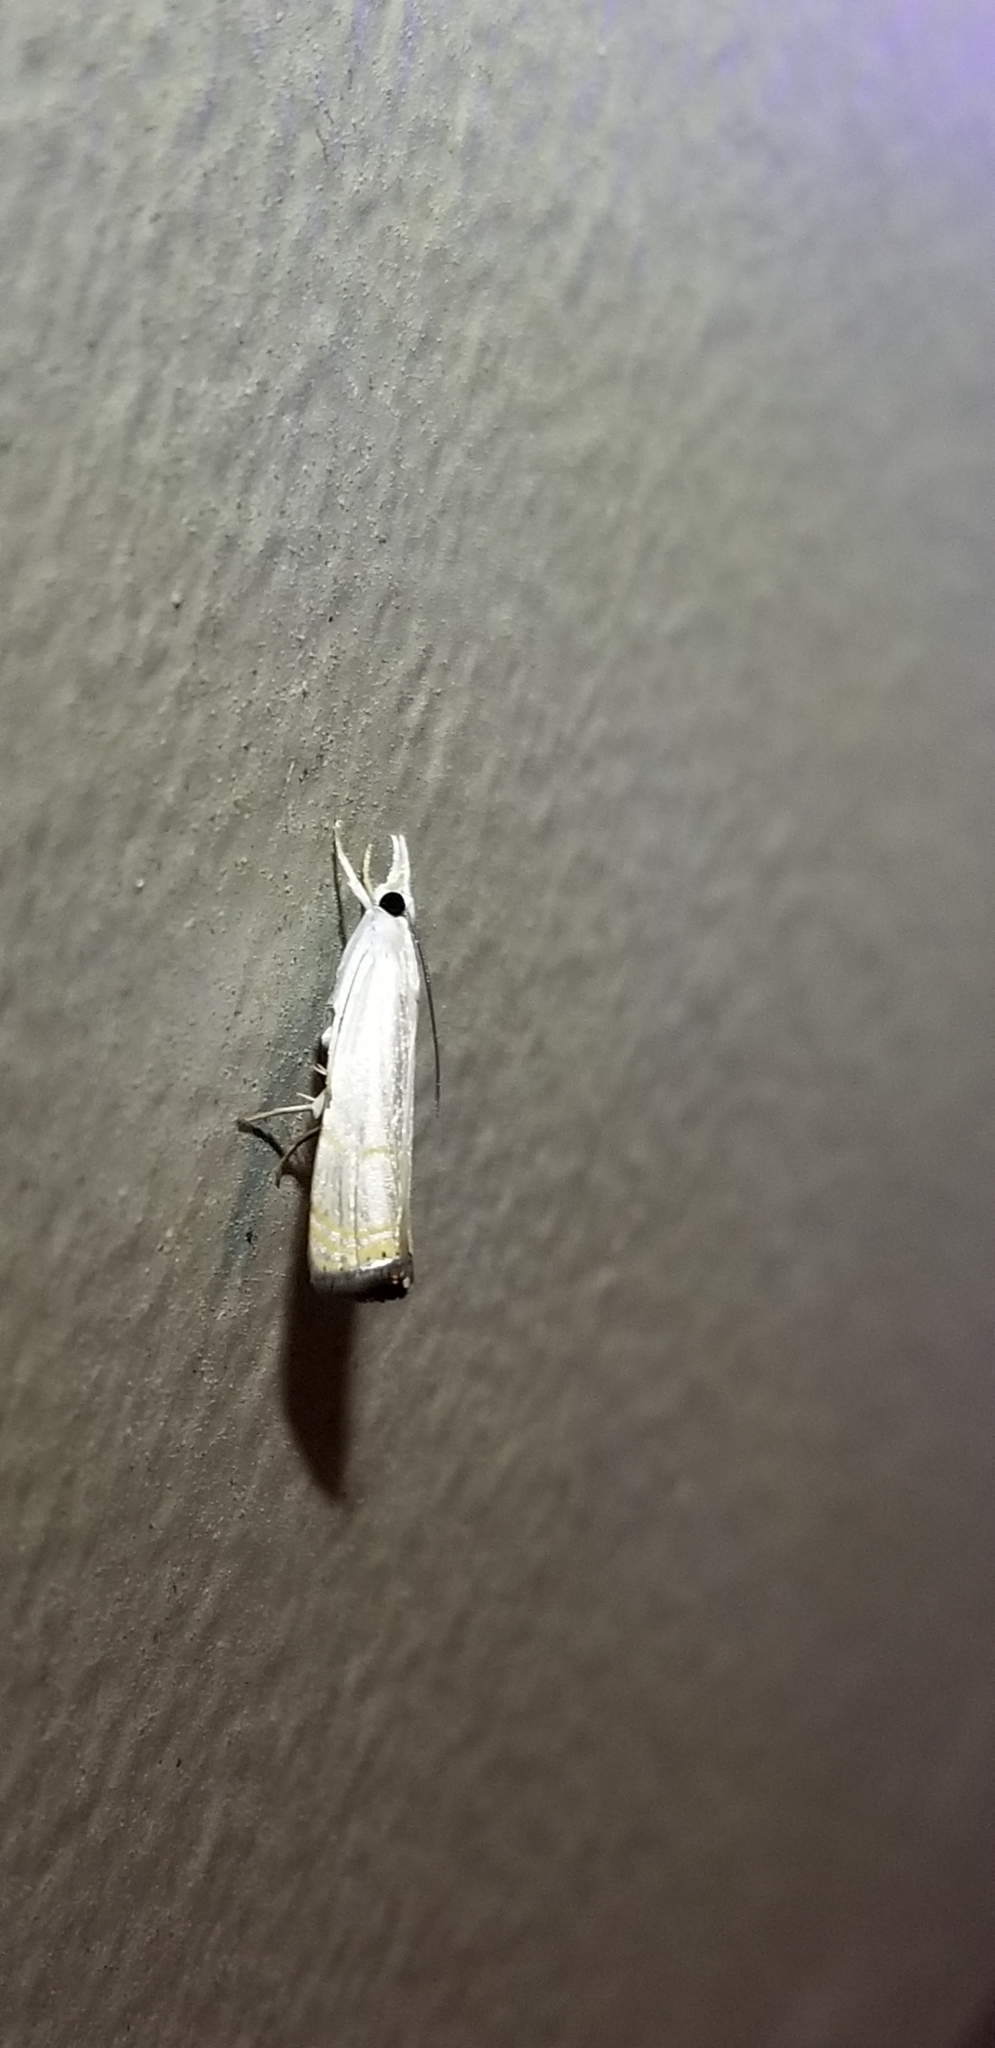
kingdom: Animalia
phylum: Arthropoda
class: Insecta
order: Lepidoptera
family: Crambidae
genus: Parapediasia
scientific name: Parapediasia decorellus
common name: Graceful grass-veneer
